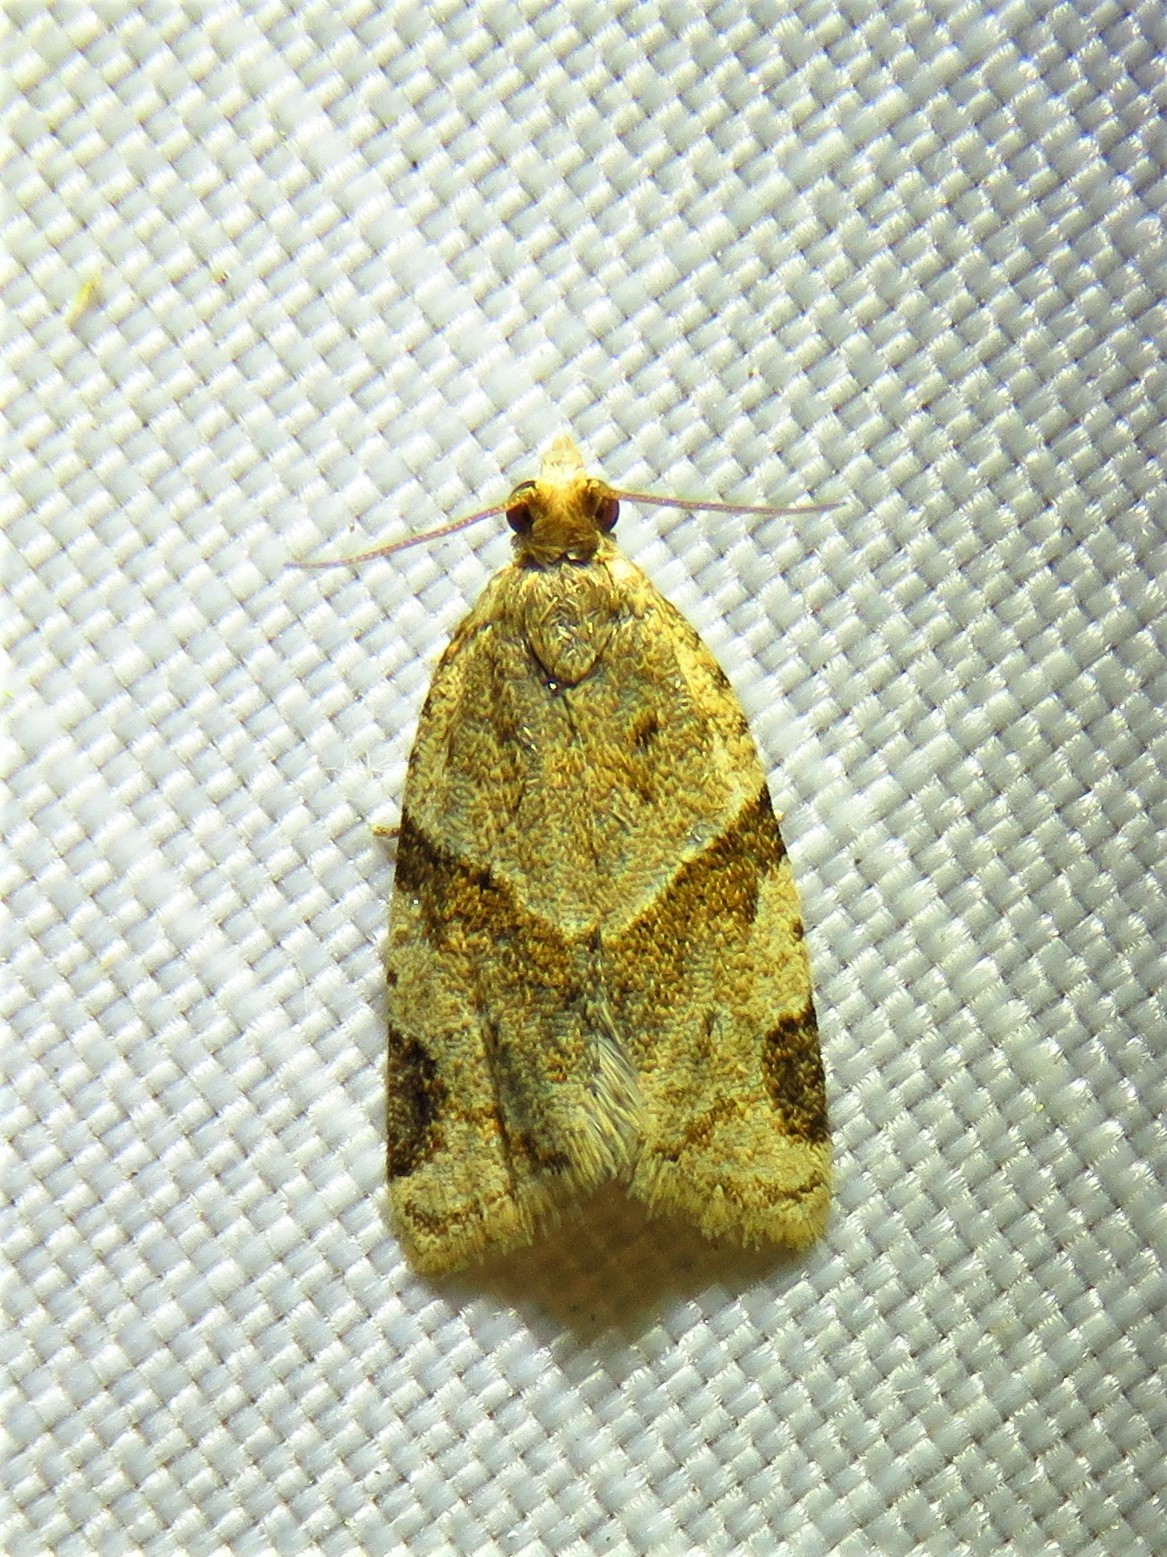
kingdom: Animalia
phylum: Arthropoda
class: Insecta
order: Lepidoptera
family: Tortricidae
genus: Clepsis
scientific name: Clepsis peritana
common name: Garden tortrix
